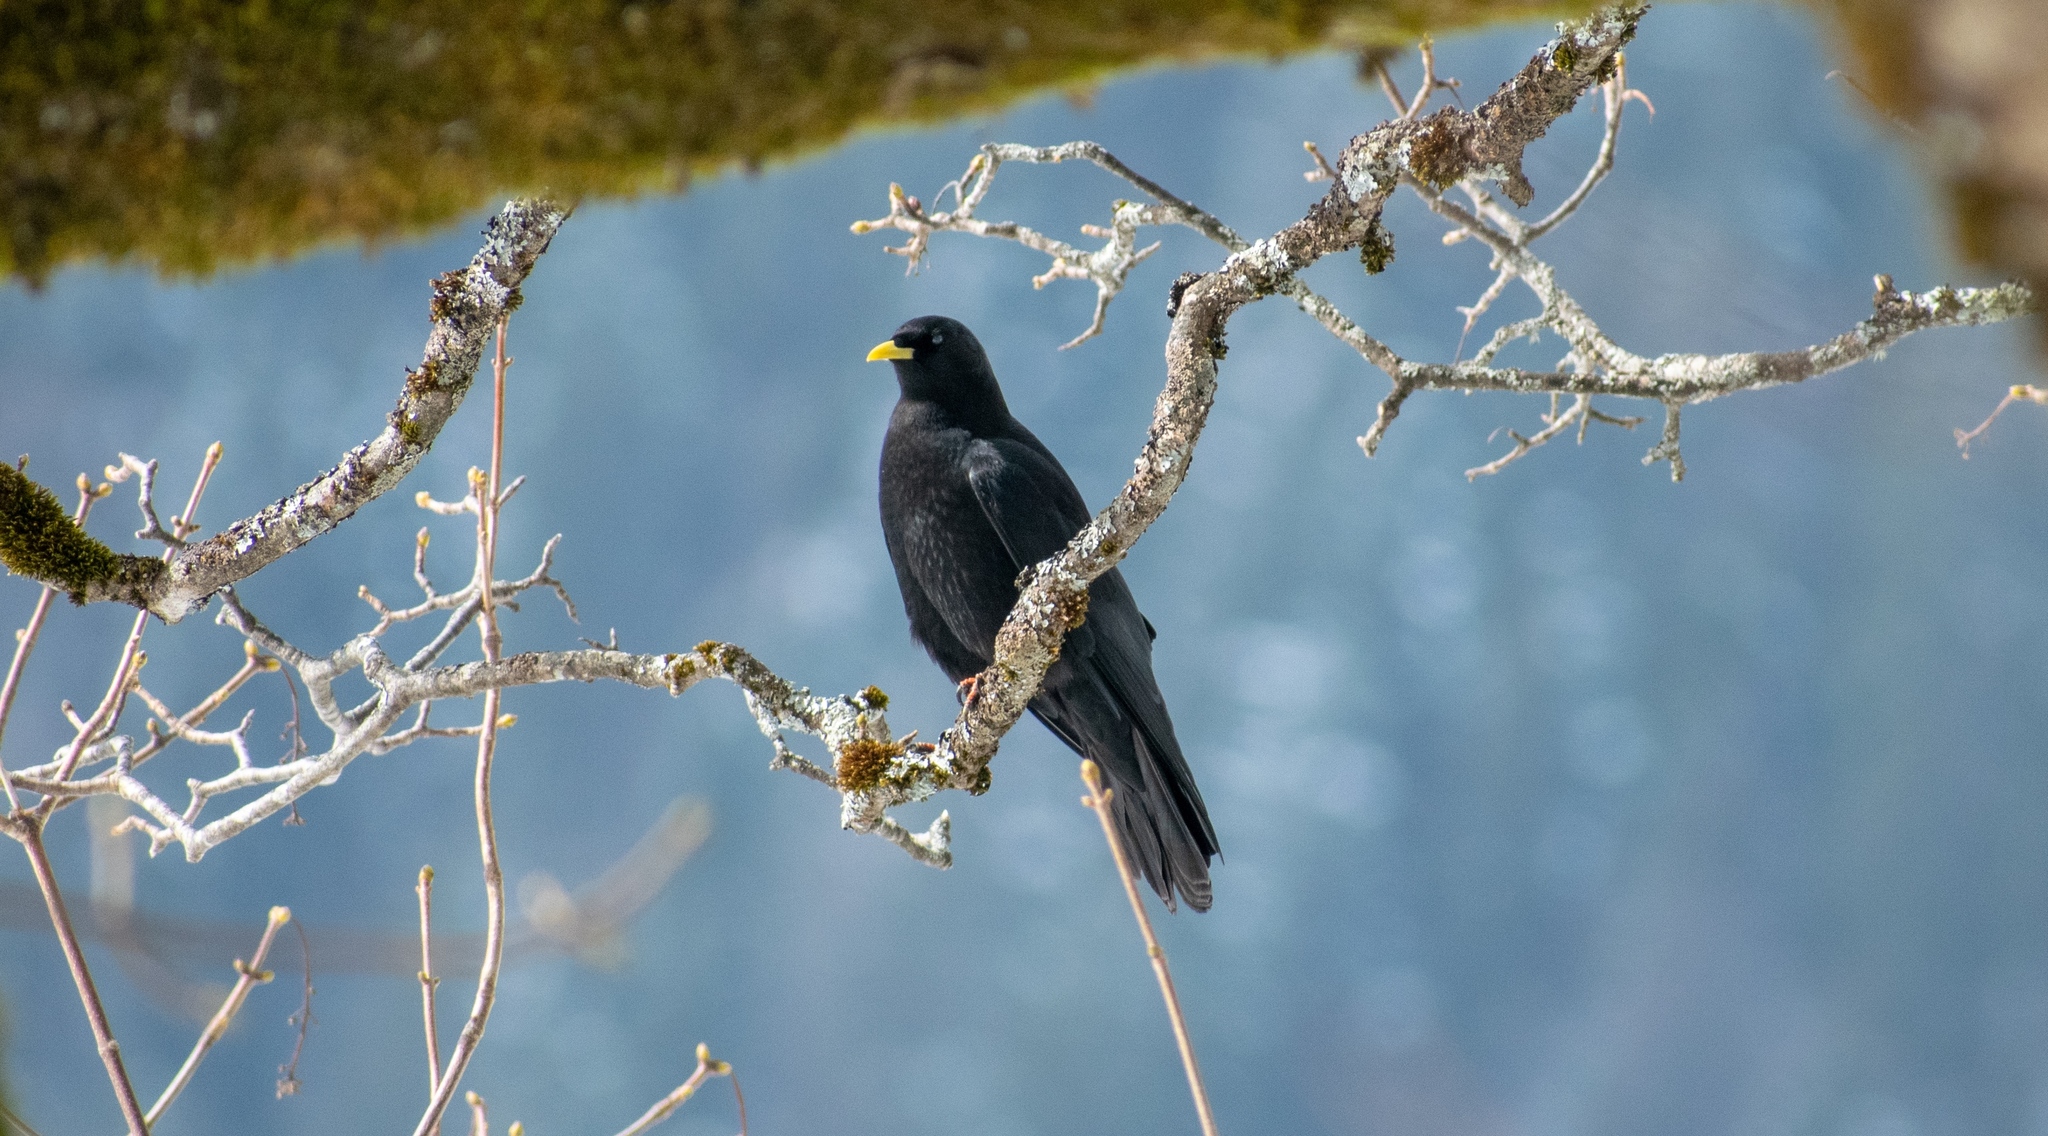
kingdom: Animalia
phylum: Chordata
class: Aves
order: Passeriformes
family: Corvidae
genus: Pyrrhocorax
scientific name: Pyrrhocorax graculus
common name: Alpine chough
